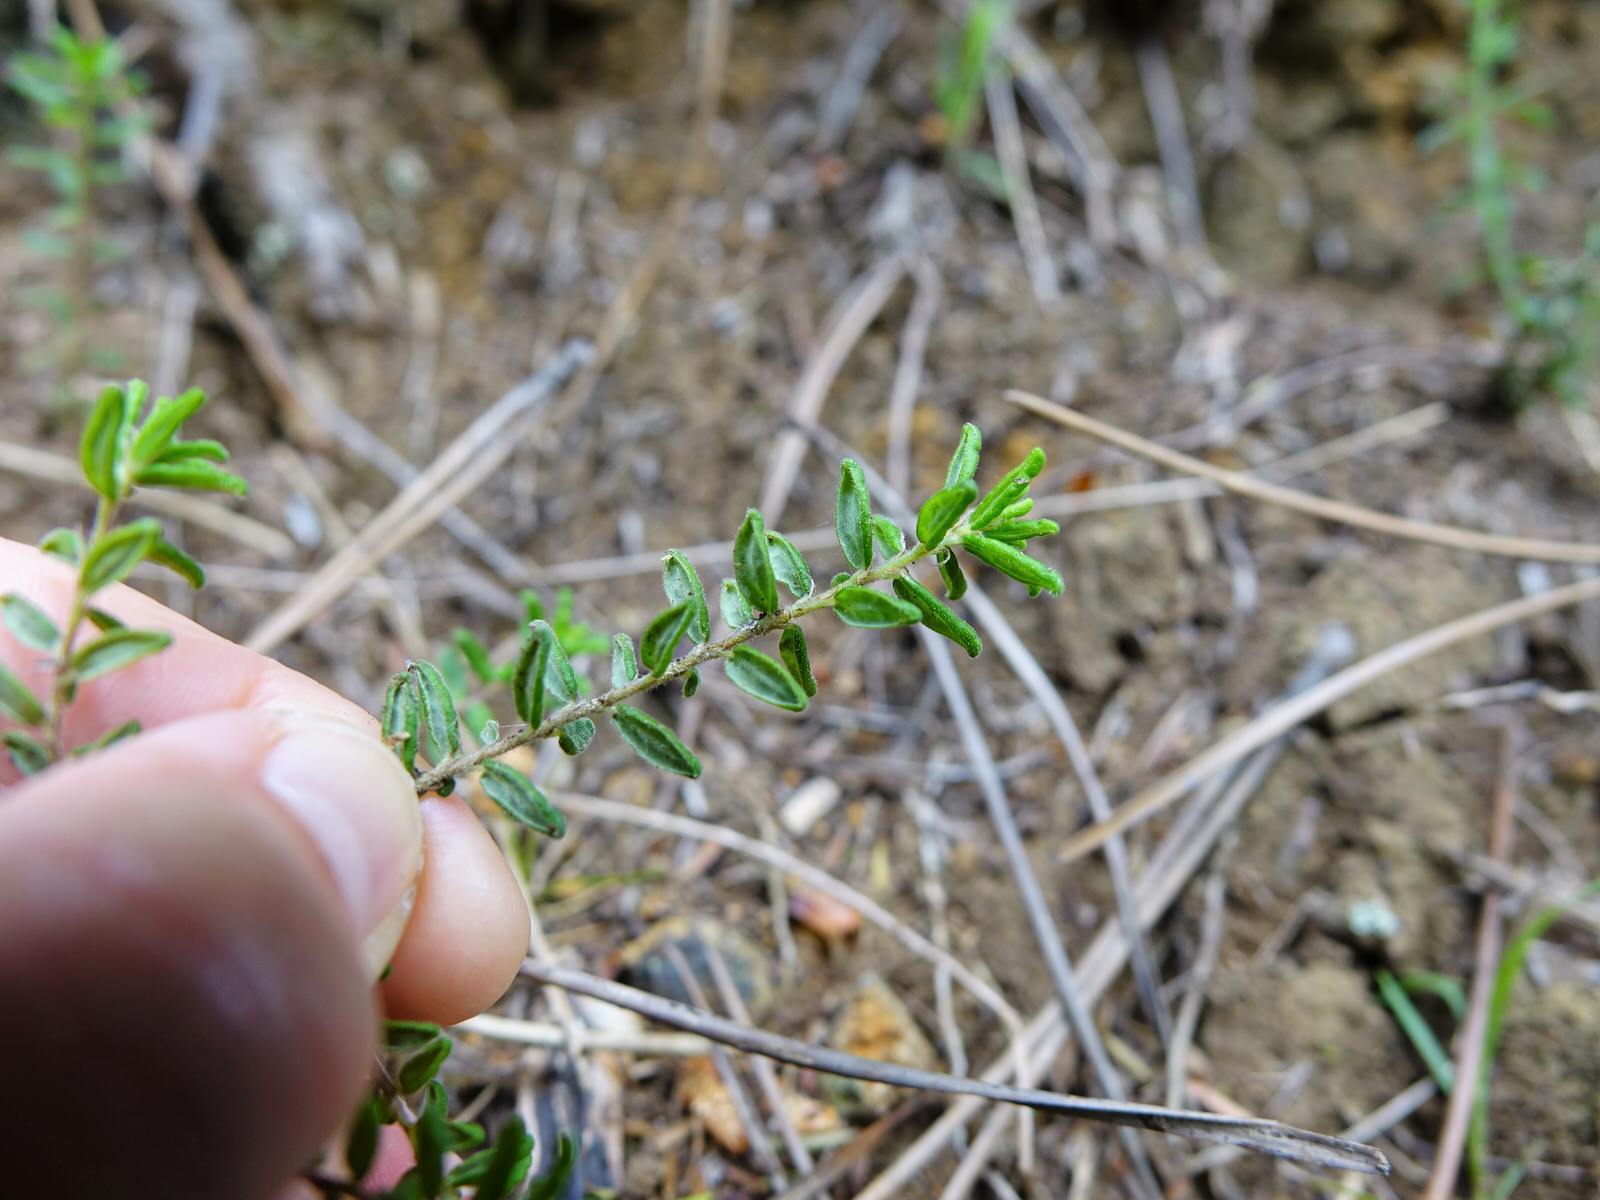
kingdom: Plantae
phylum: Tracheophyta
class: Magnoliopsida
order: Rosales
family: Rhamnaceae
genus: Pomaderris
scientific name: Pomaderris amoena
